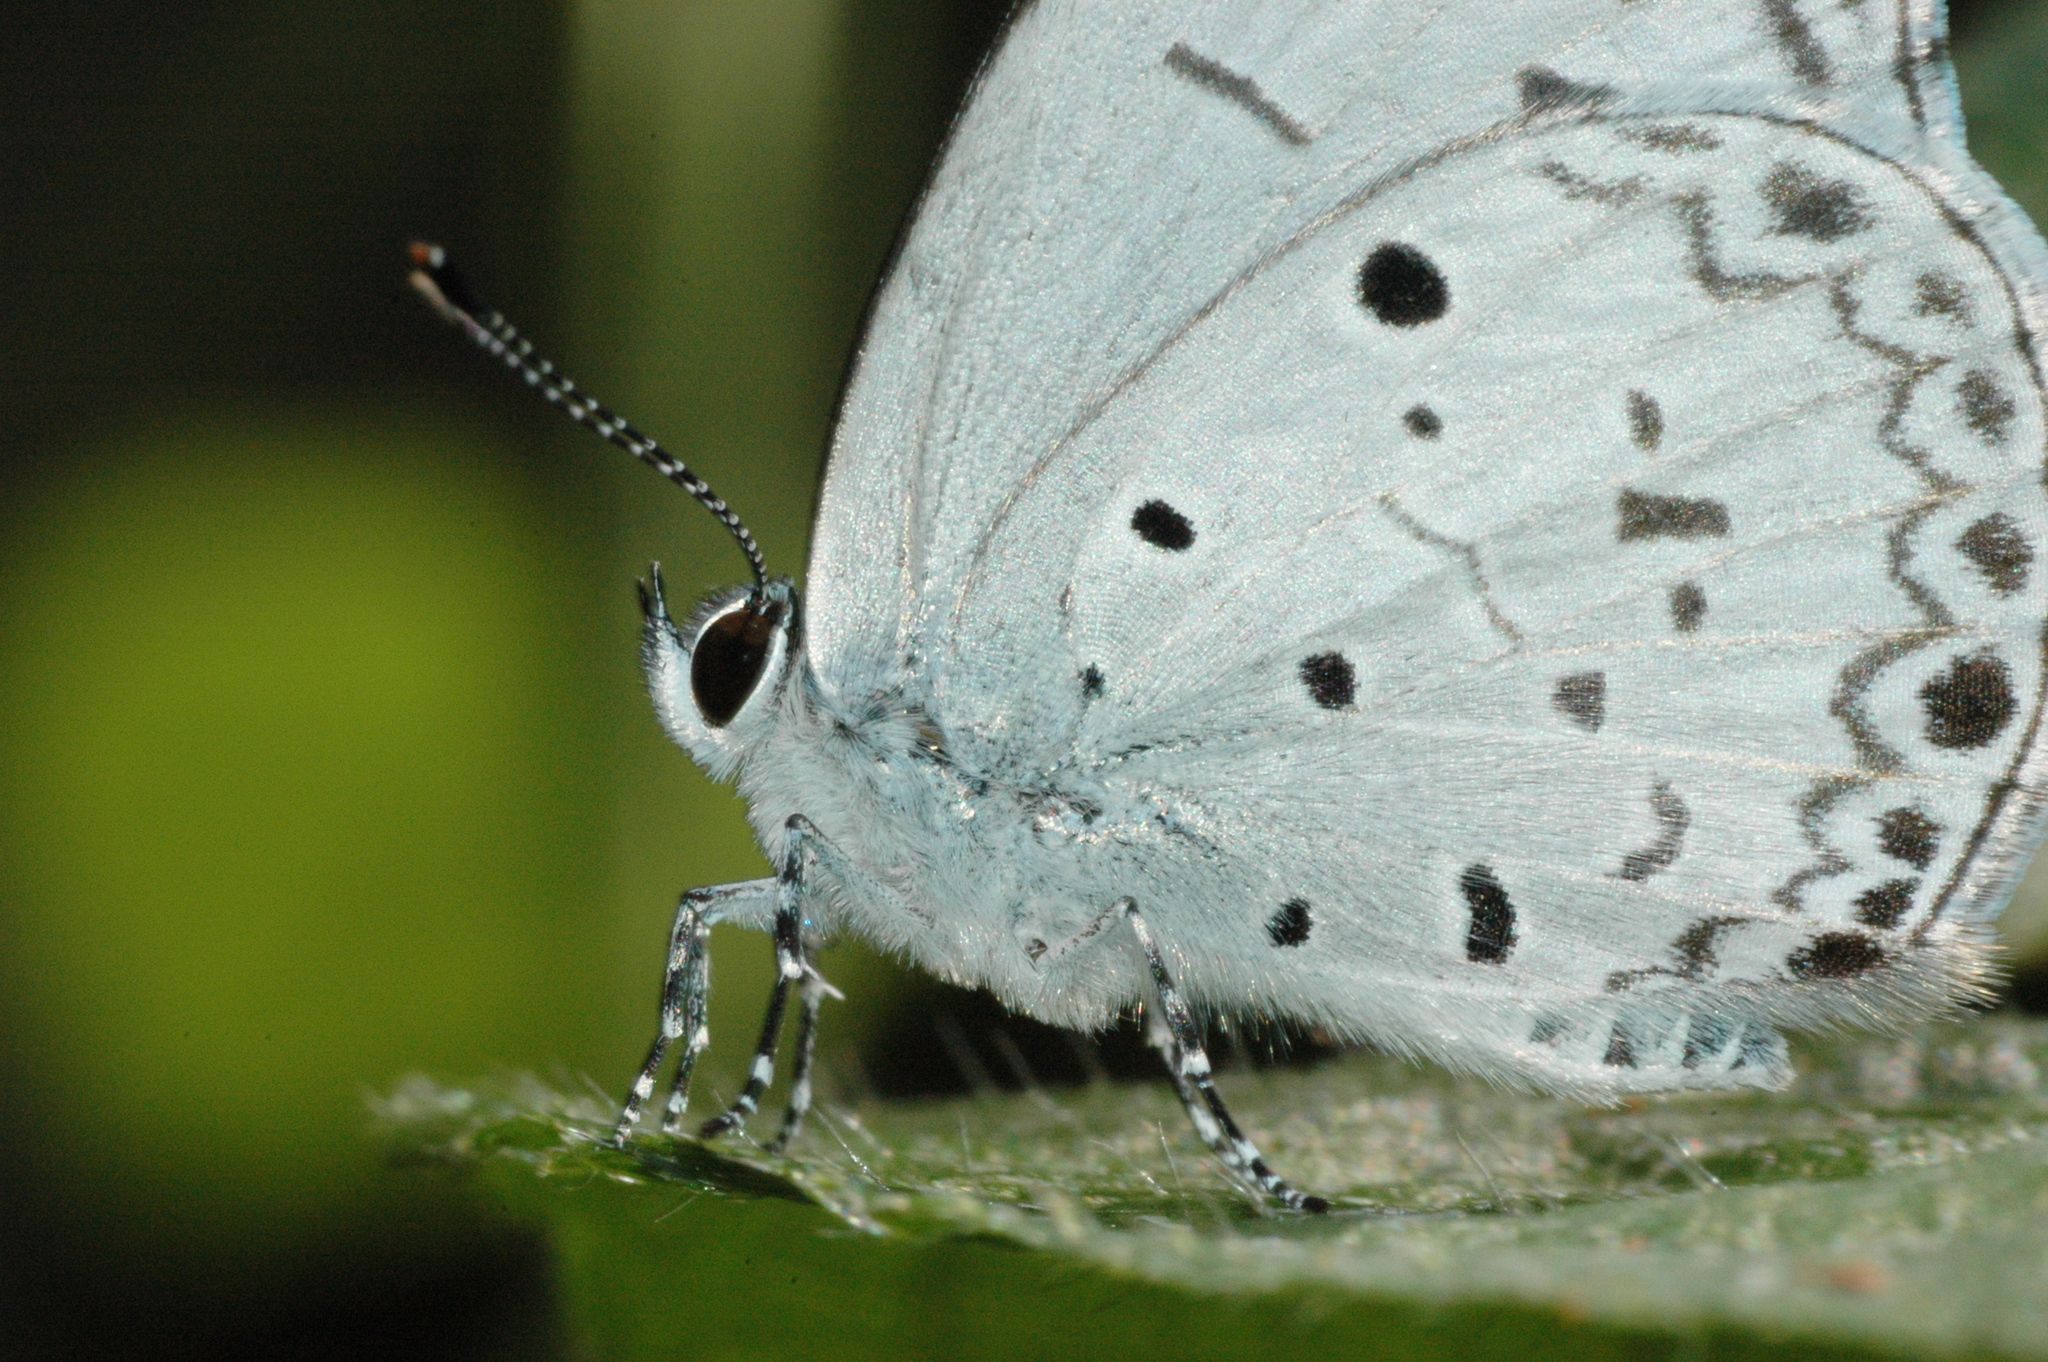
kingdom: Animalia
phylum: Arthropoda
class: Insecta
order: Lepidoptera
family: Lycaenidae
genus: Acytolepis
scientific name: Acytolepis puspa
